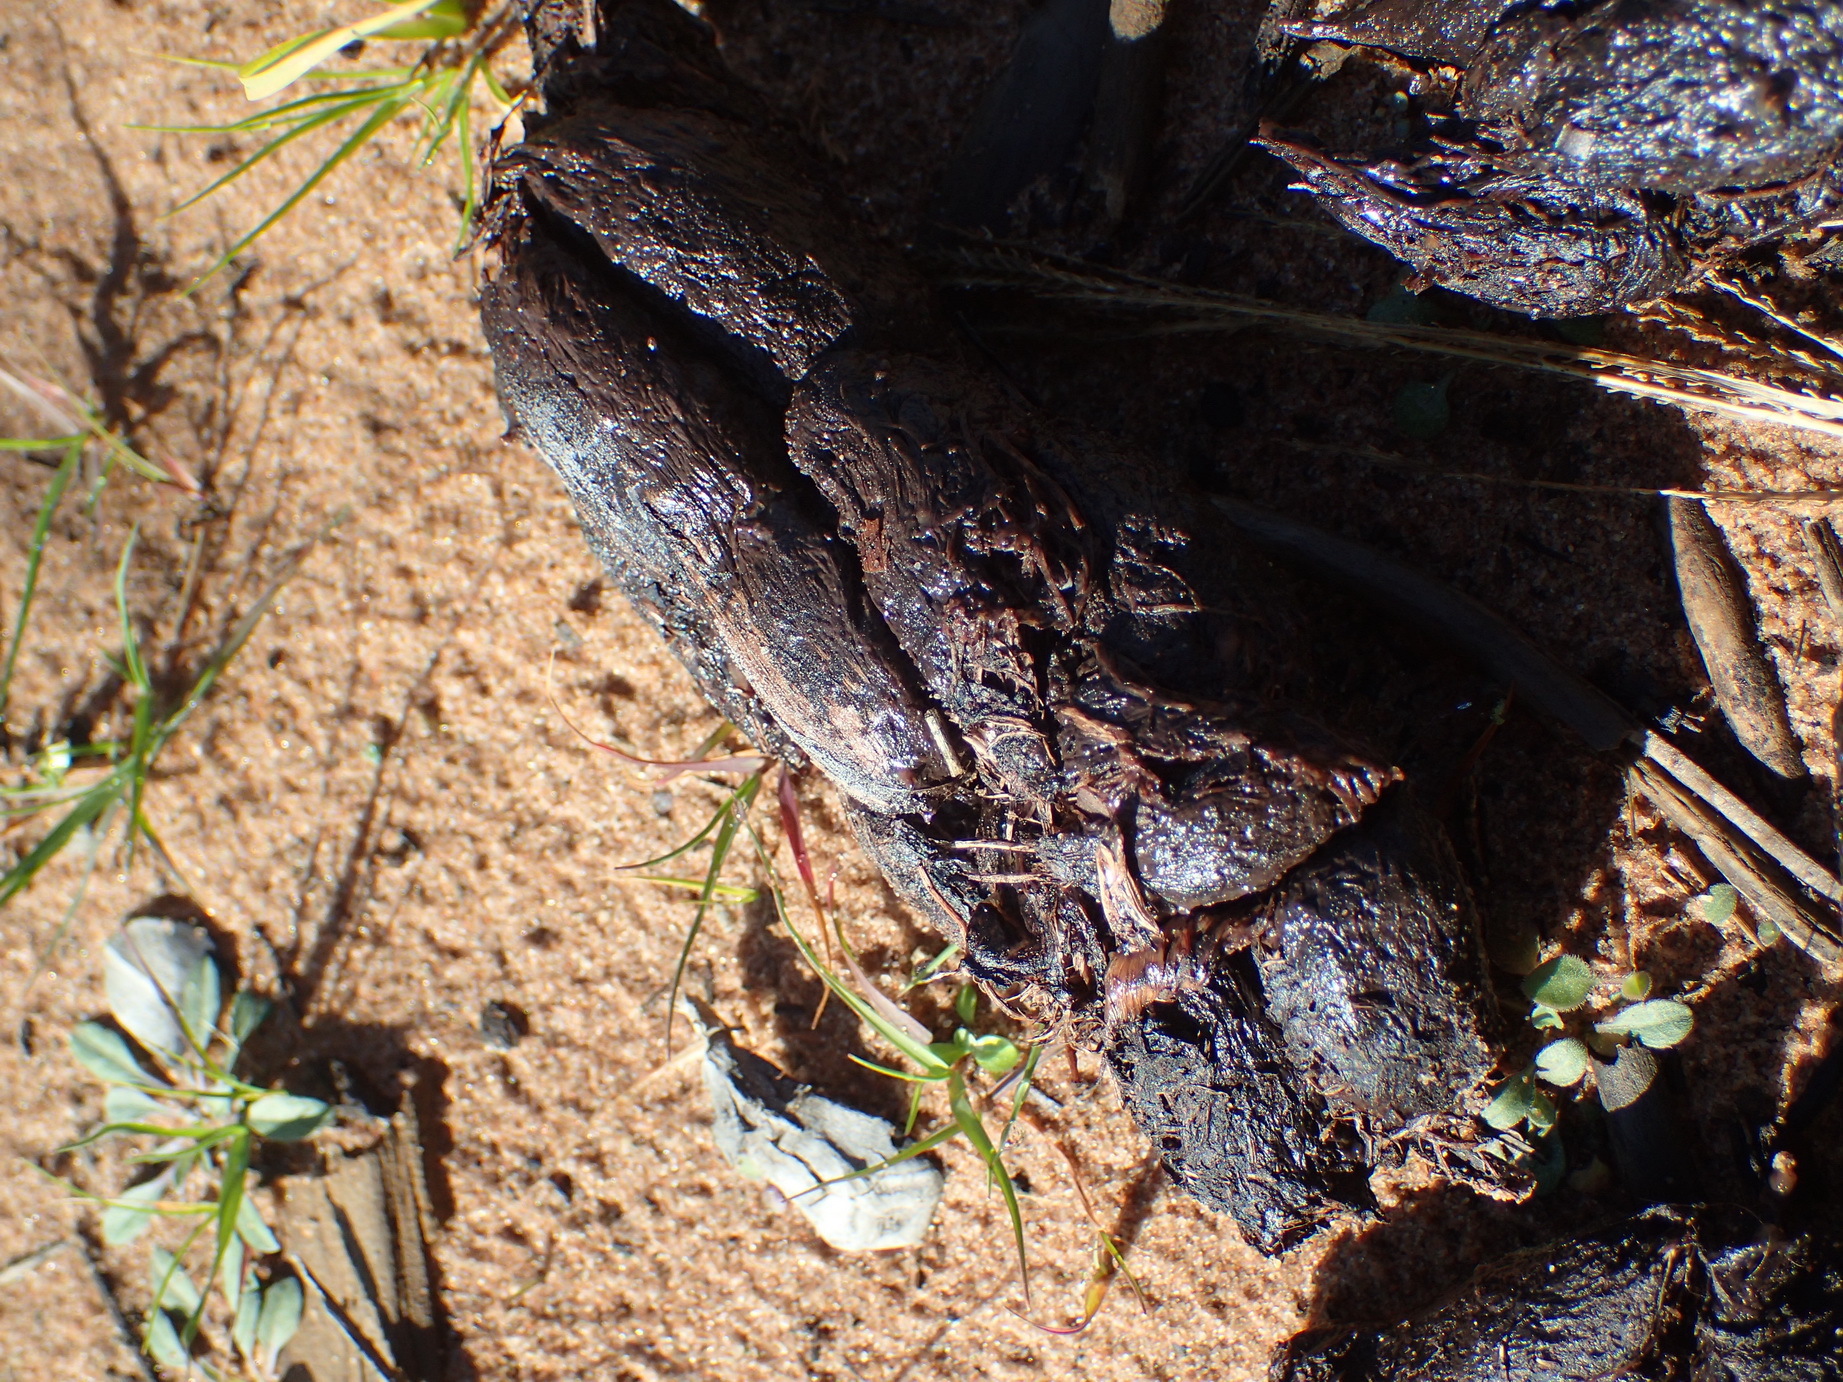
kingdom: Animalia
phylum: Chordata
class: Mammalia
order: Rodentia
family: Hystricidae
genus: Hystrix
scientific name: Hystrix africaeaustralis
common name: Cape porcupine
